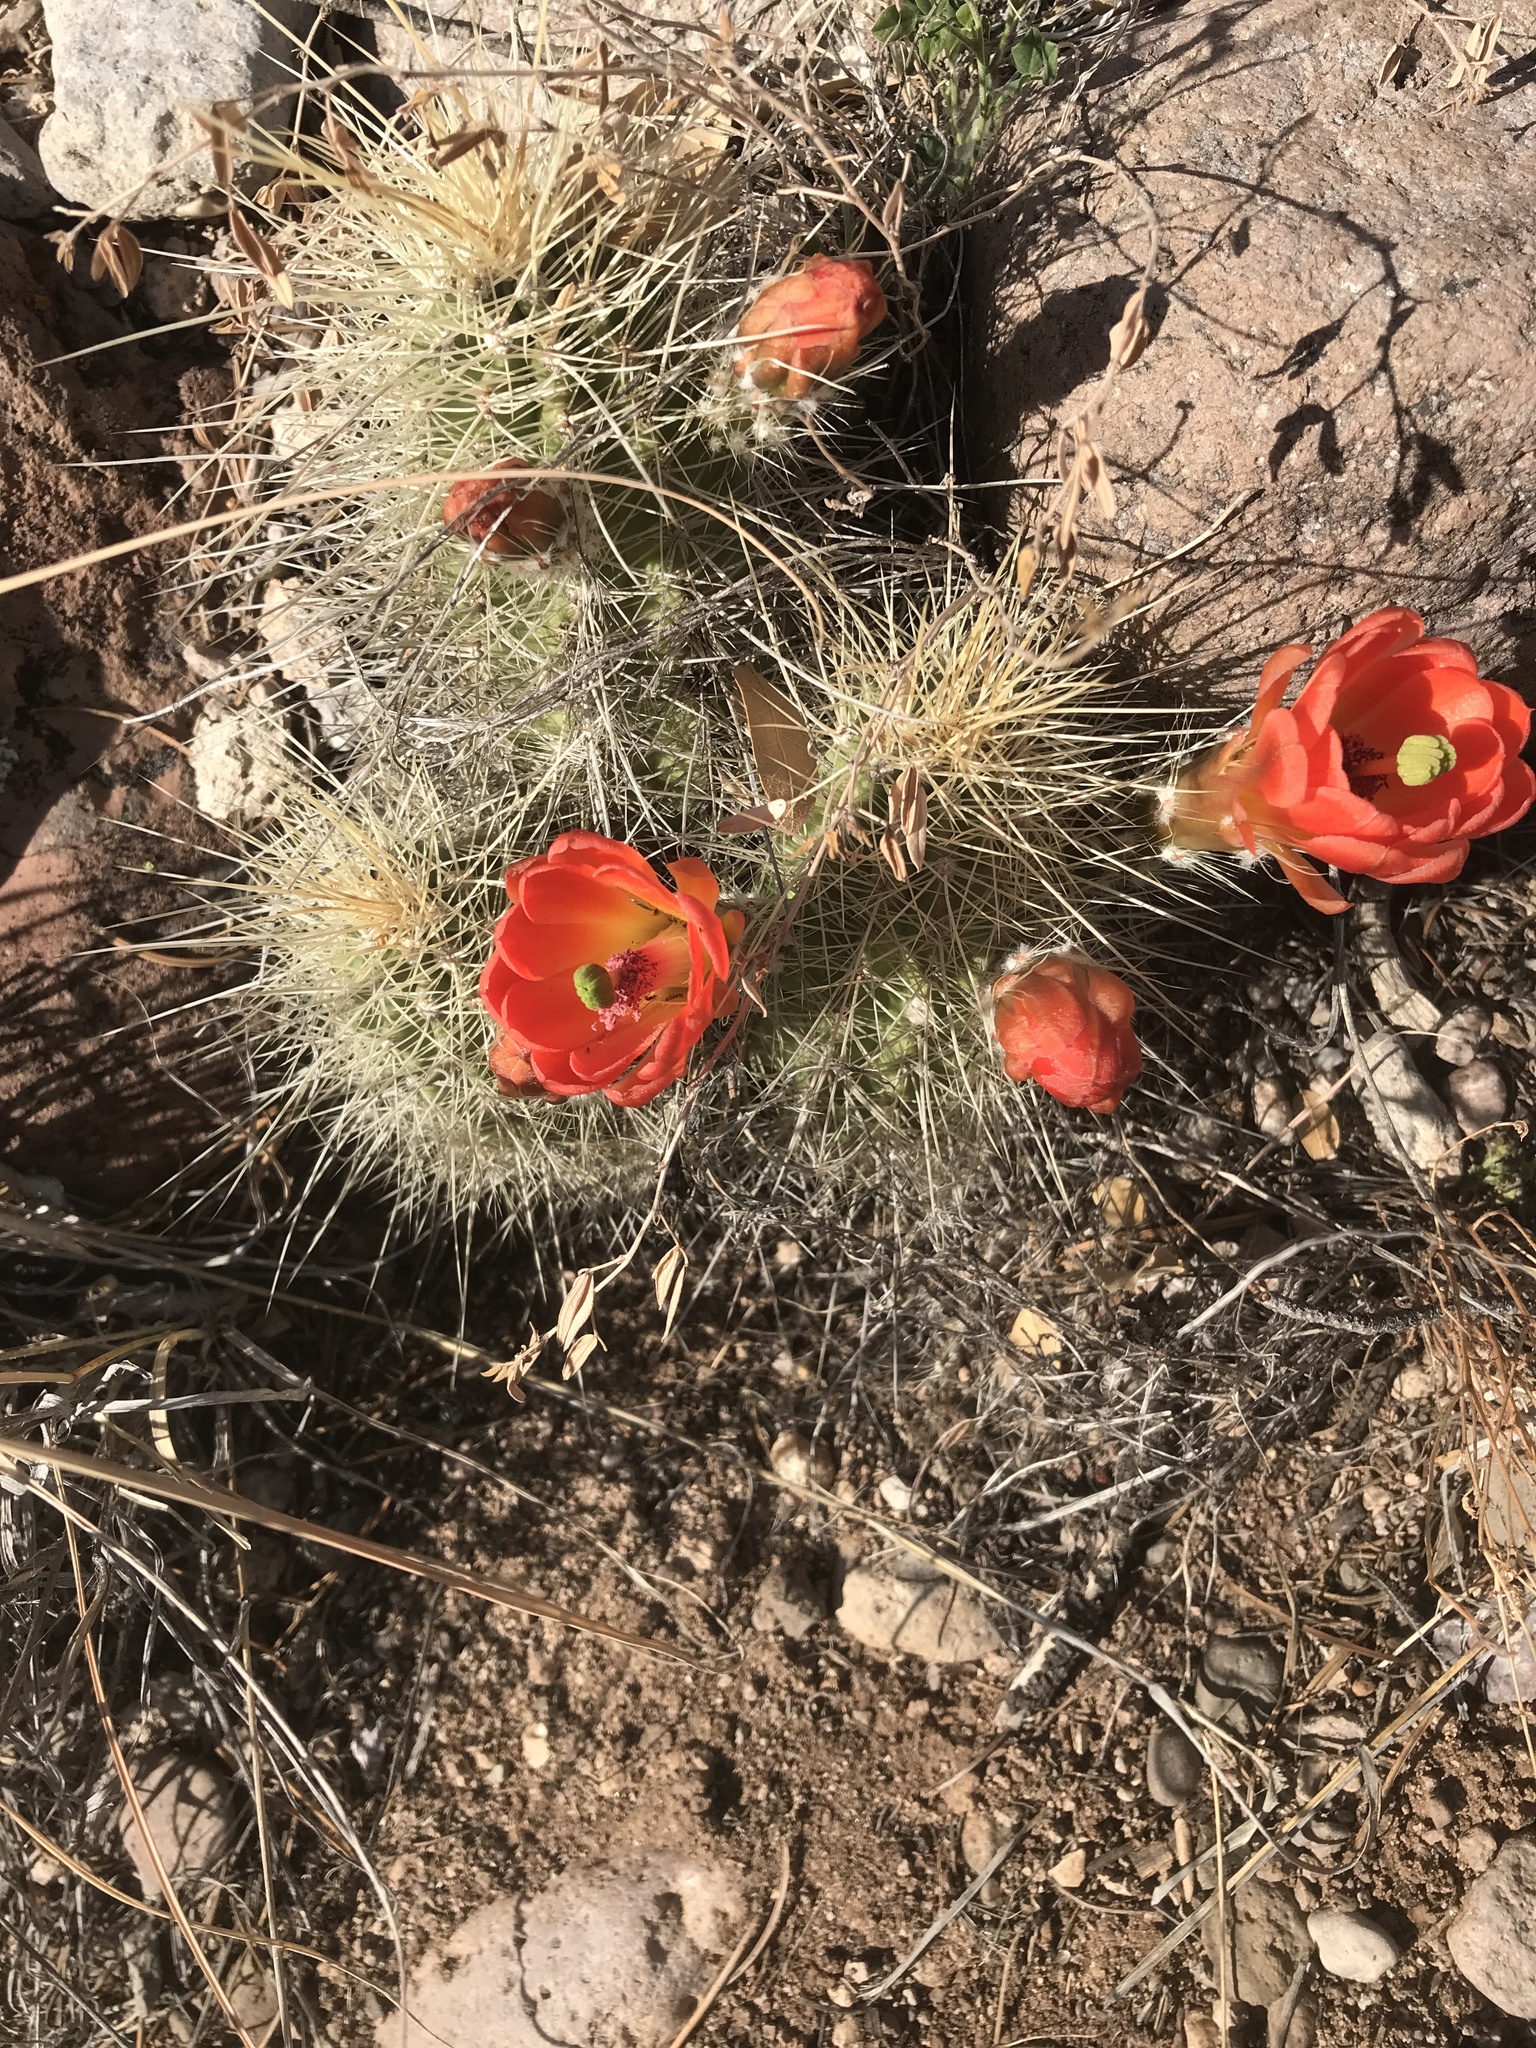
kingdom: Plantae
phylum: Tracheophyta
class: Magnoliopsida
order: Caryophyllales
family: Cactaceae
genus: Echinocereus
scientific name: Echinocereus coccineus
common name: Scarlet hedgehog cactus
